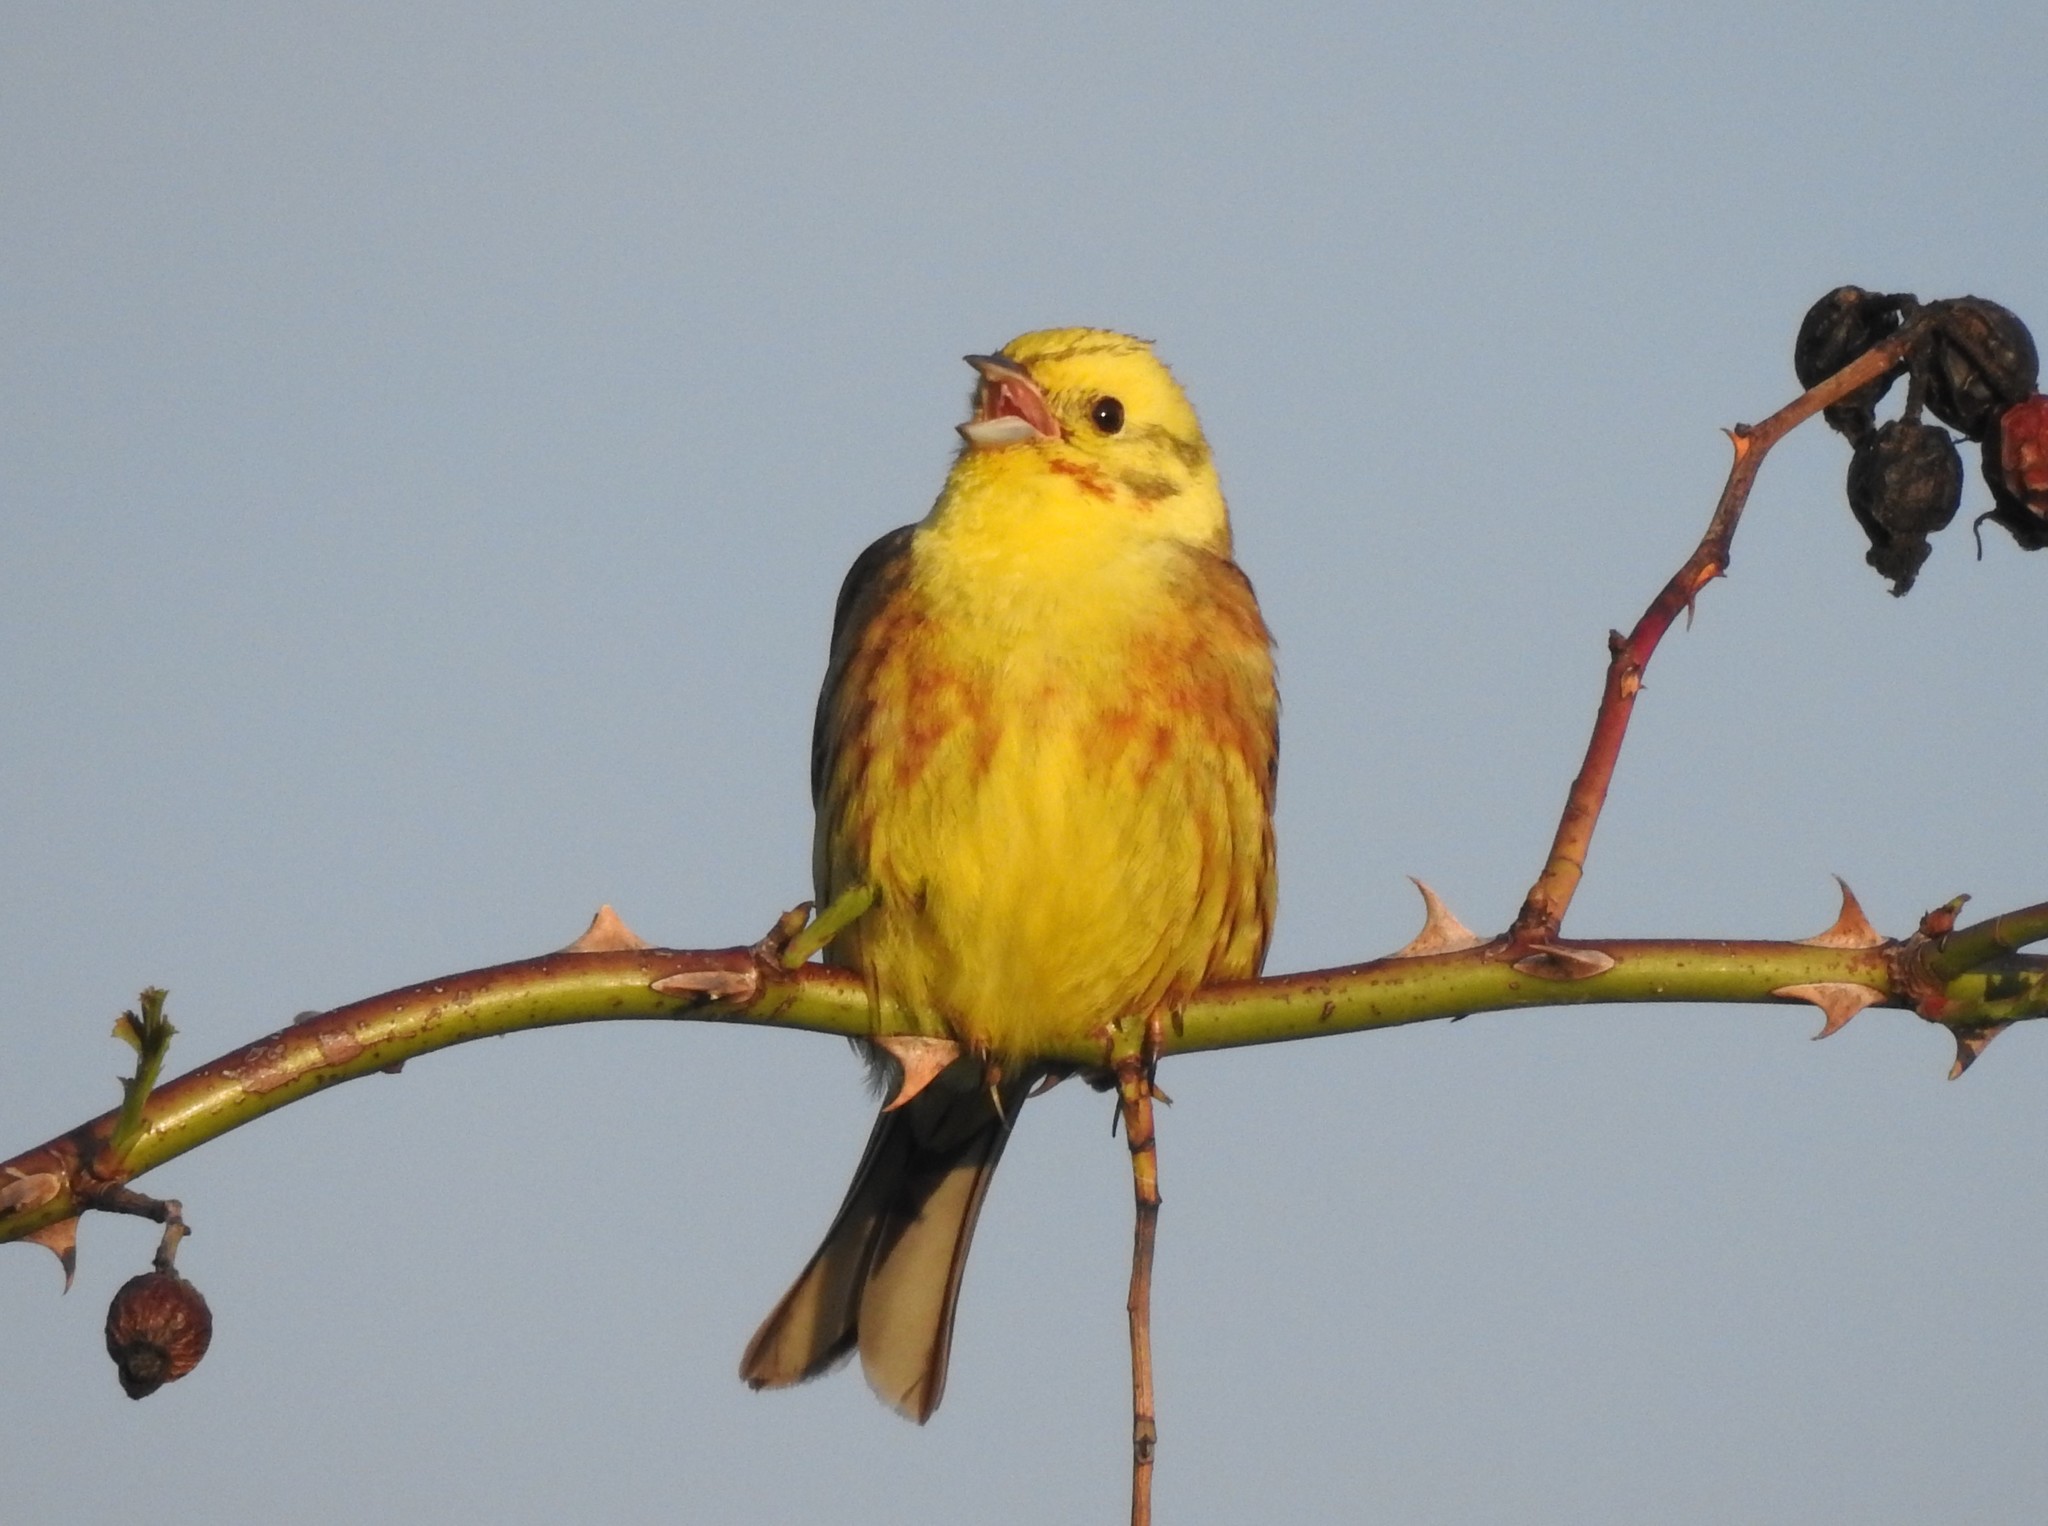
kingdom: Animalia
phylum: Chordata
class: Aves
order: Passeriformes
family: Emberizidae
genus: Emberiza
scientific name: Emberiza citrinella
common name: Yellowhammer
